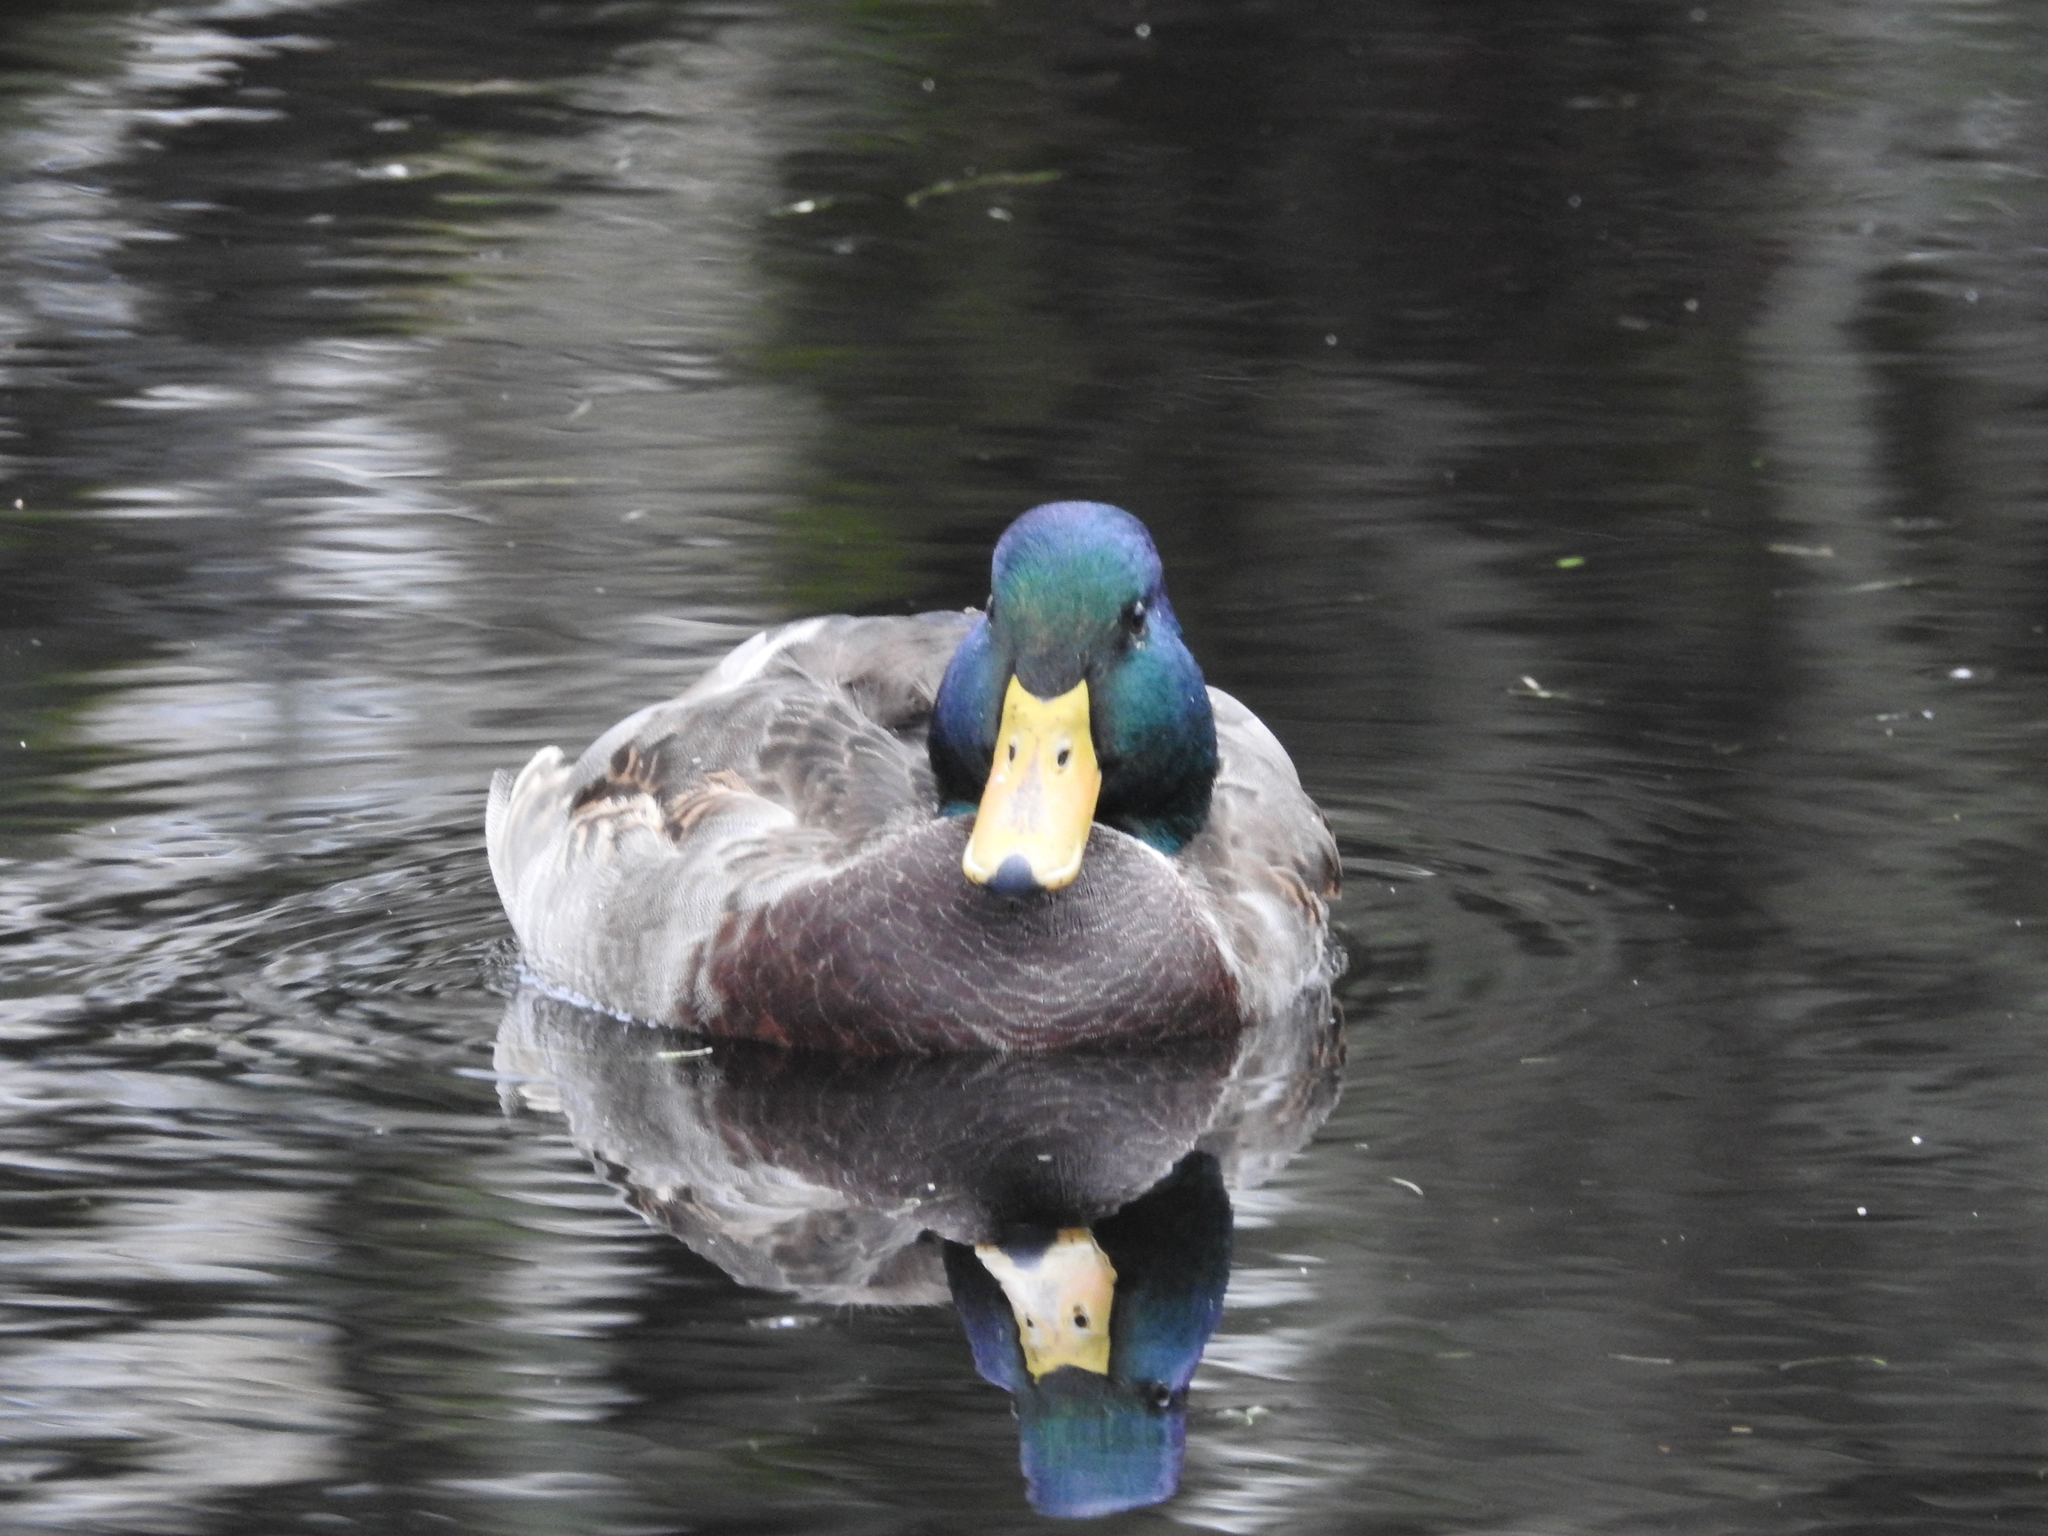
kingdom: Animalia
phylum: Chordata
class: Aves
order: Anseriformes
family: Anatidae
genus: Anas
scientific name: Anas platyrhynchos
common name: Mallard
